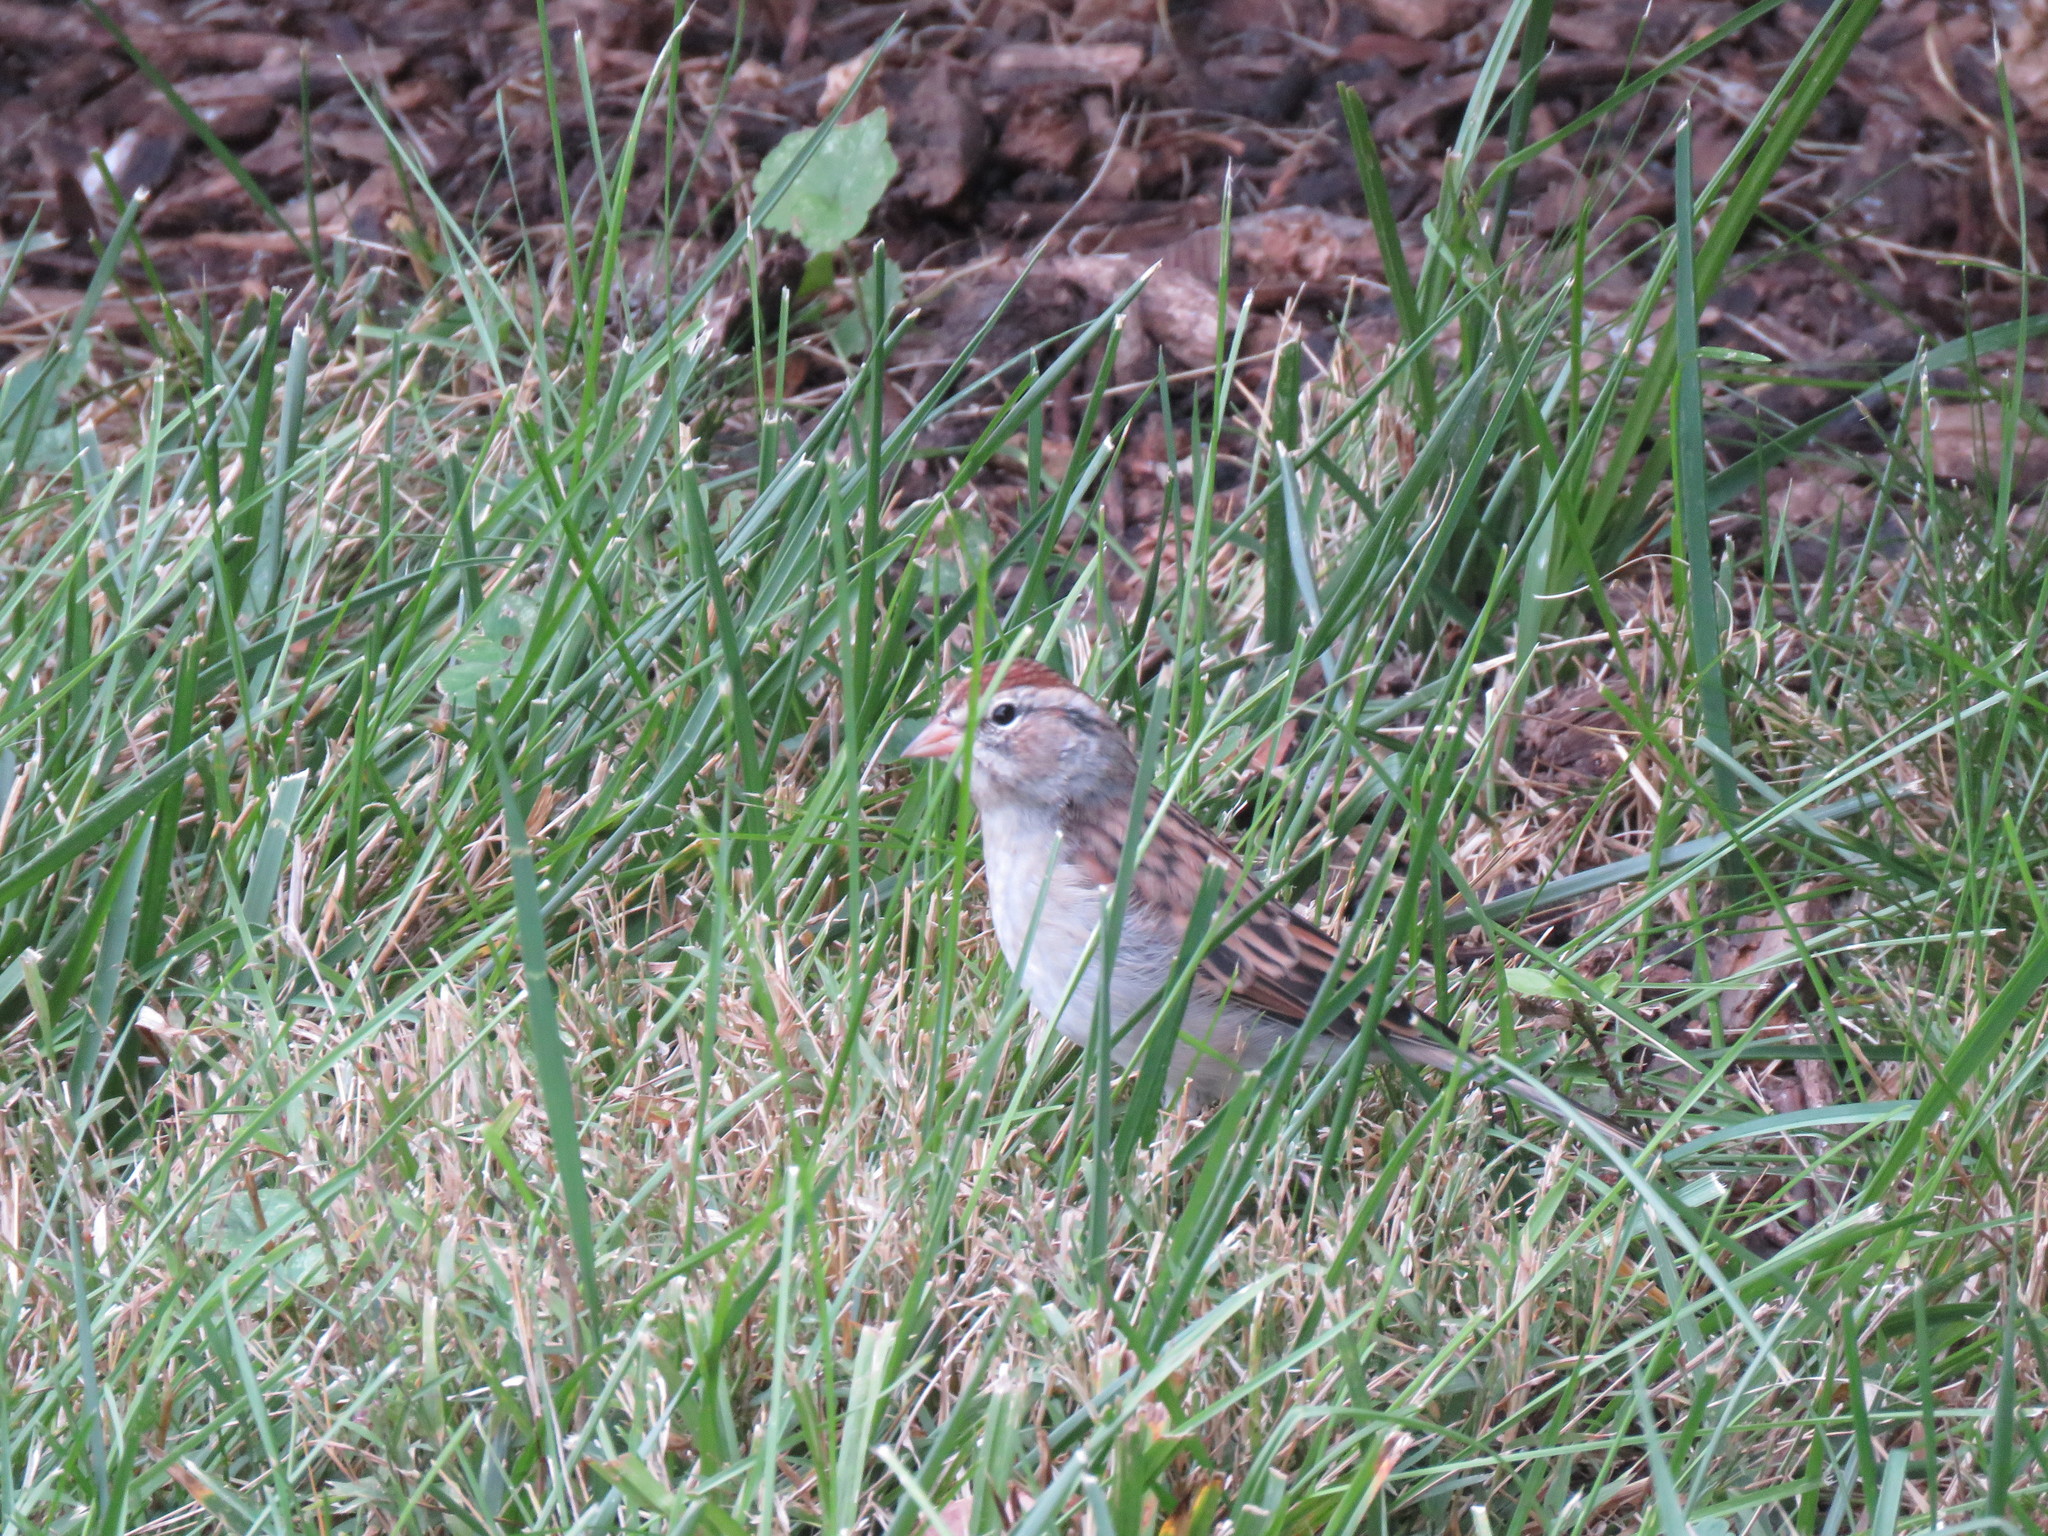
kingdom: Animalia
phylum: Chordata
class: Aves
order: Passeriformes
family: Passerellidae
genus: Spizella
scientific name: Spizella passerina
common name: Chipping sparrow
